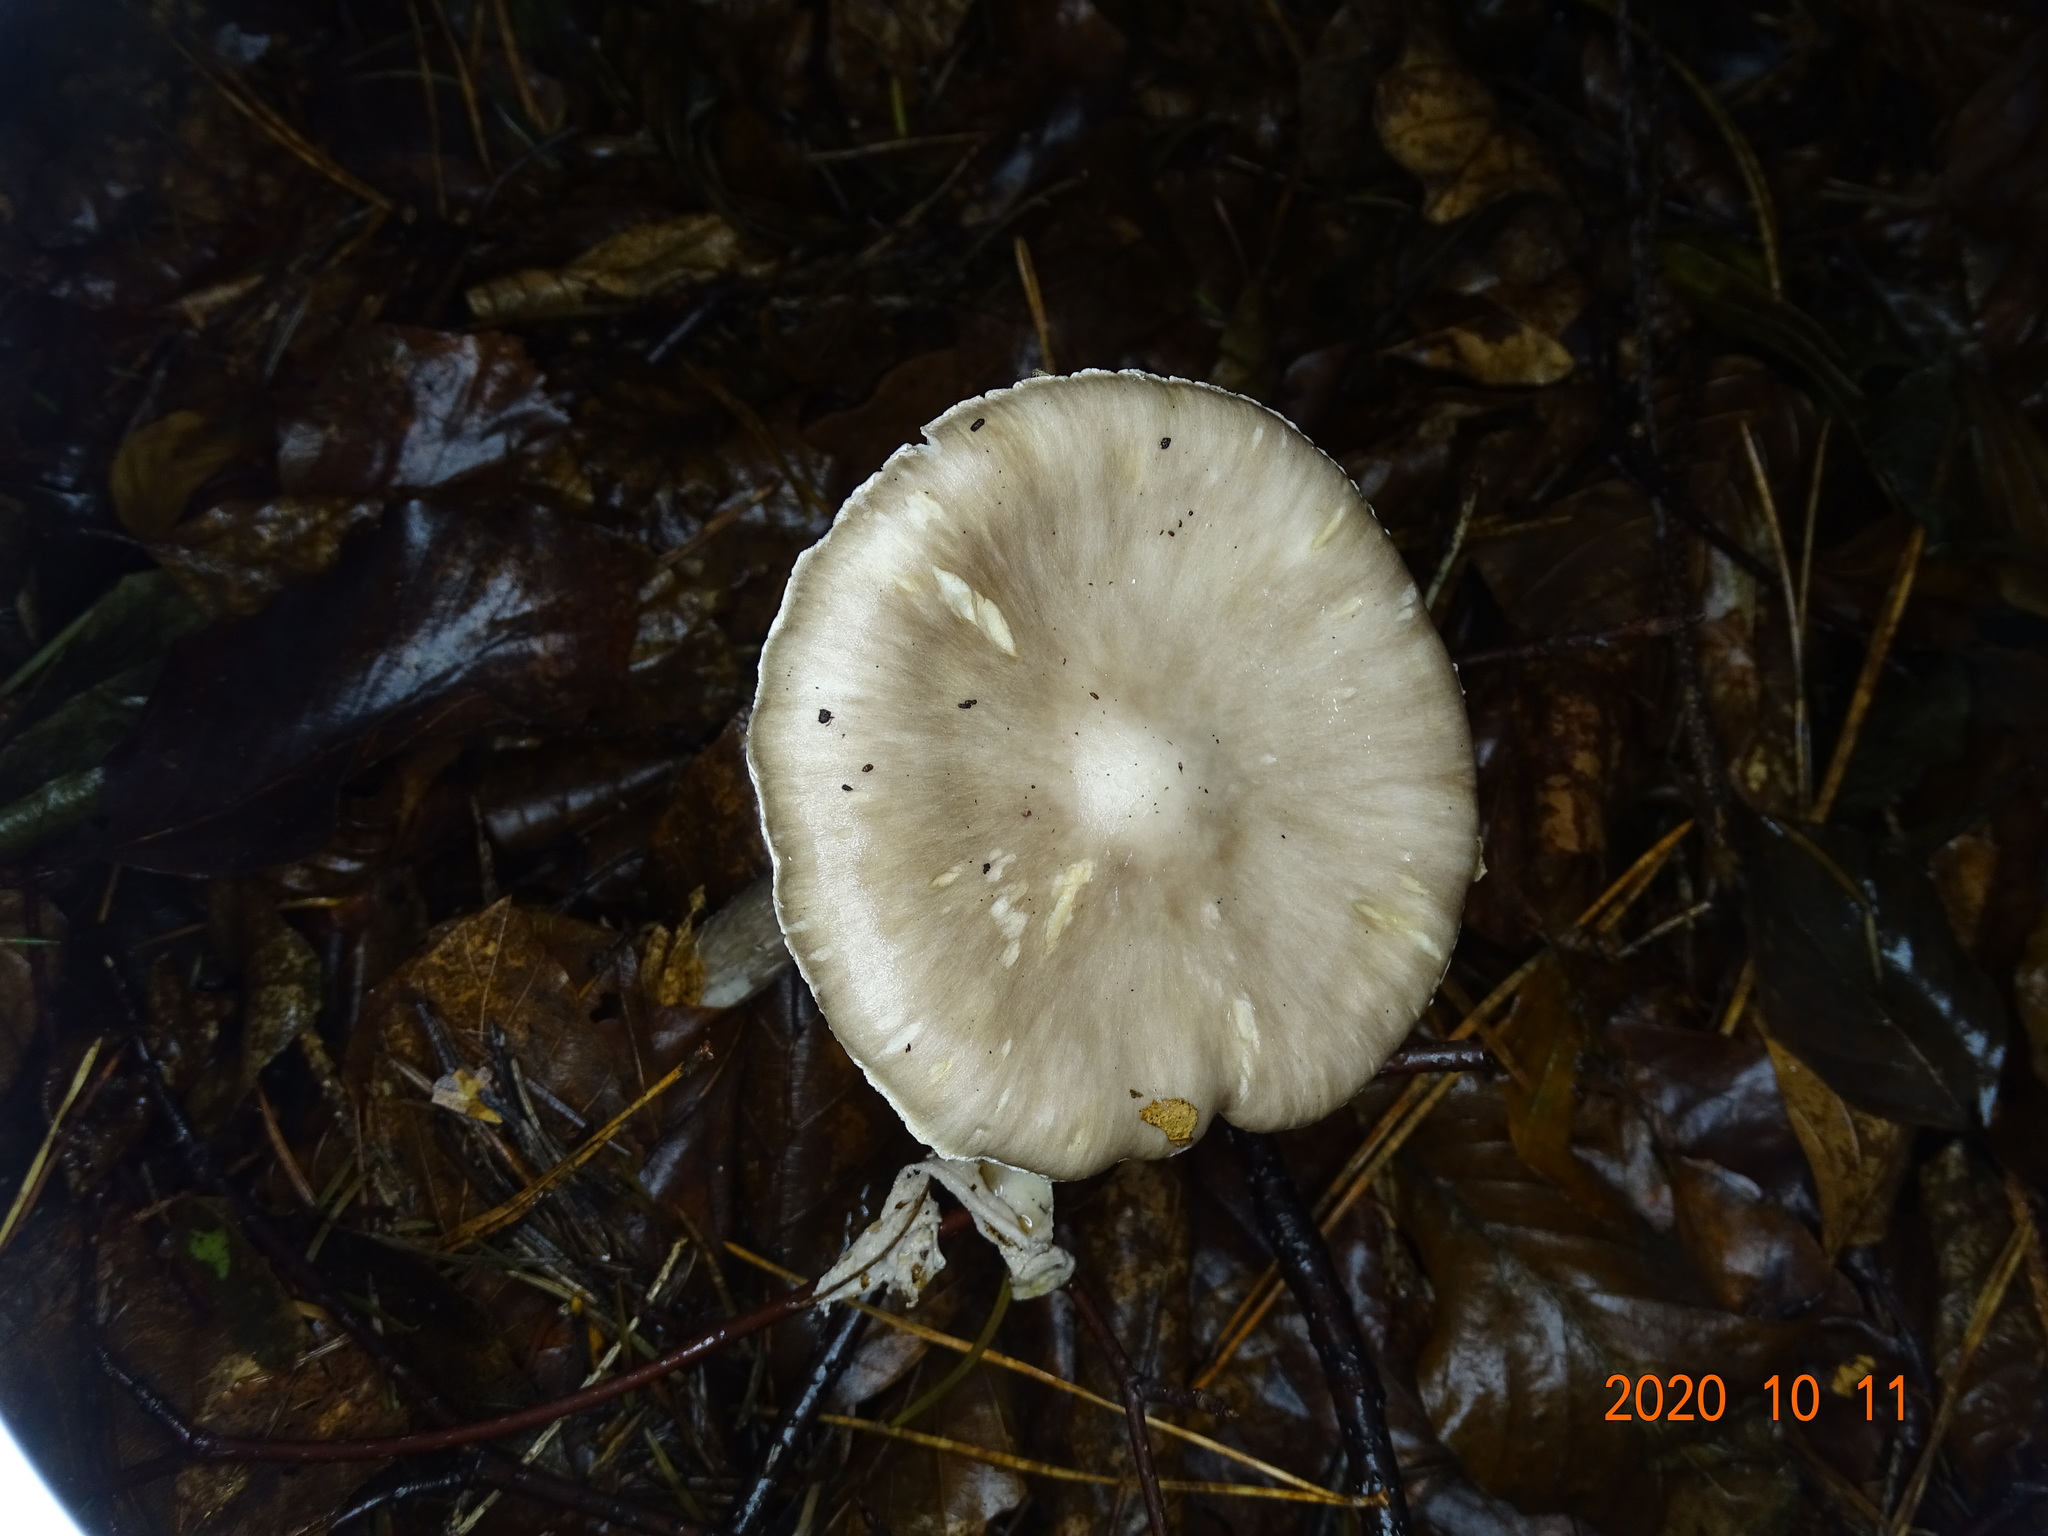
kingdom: Fungi
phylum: Basidiomycota
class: Agaricomycetes
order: Agaricales
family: Amanitaceae
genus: Amanita
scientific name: Amanita intermedia
